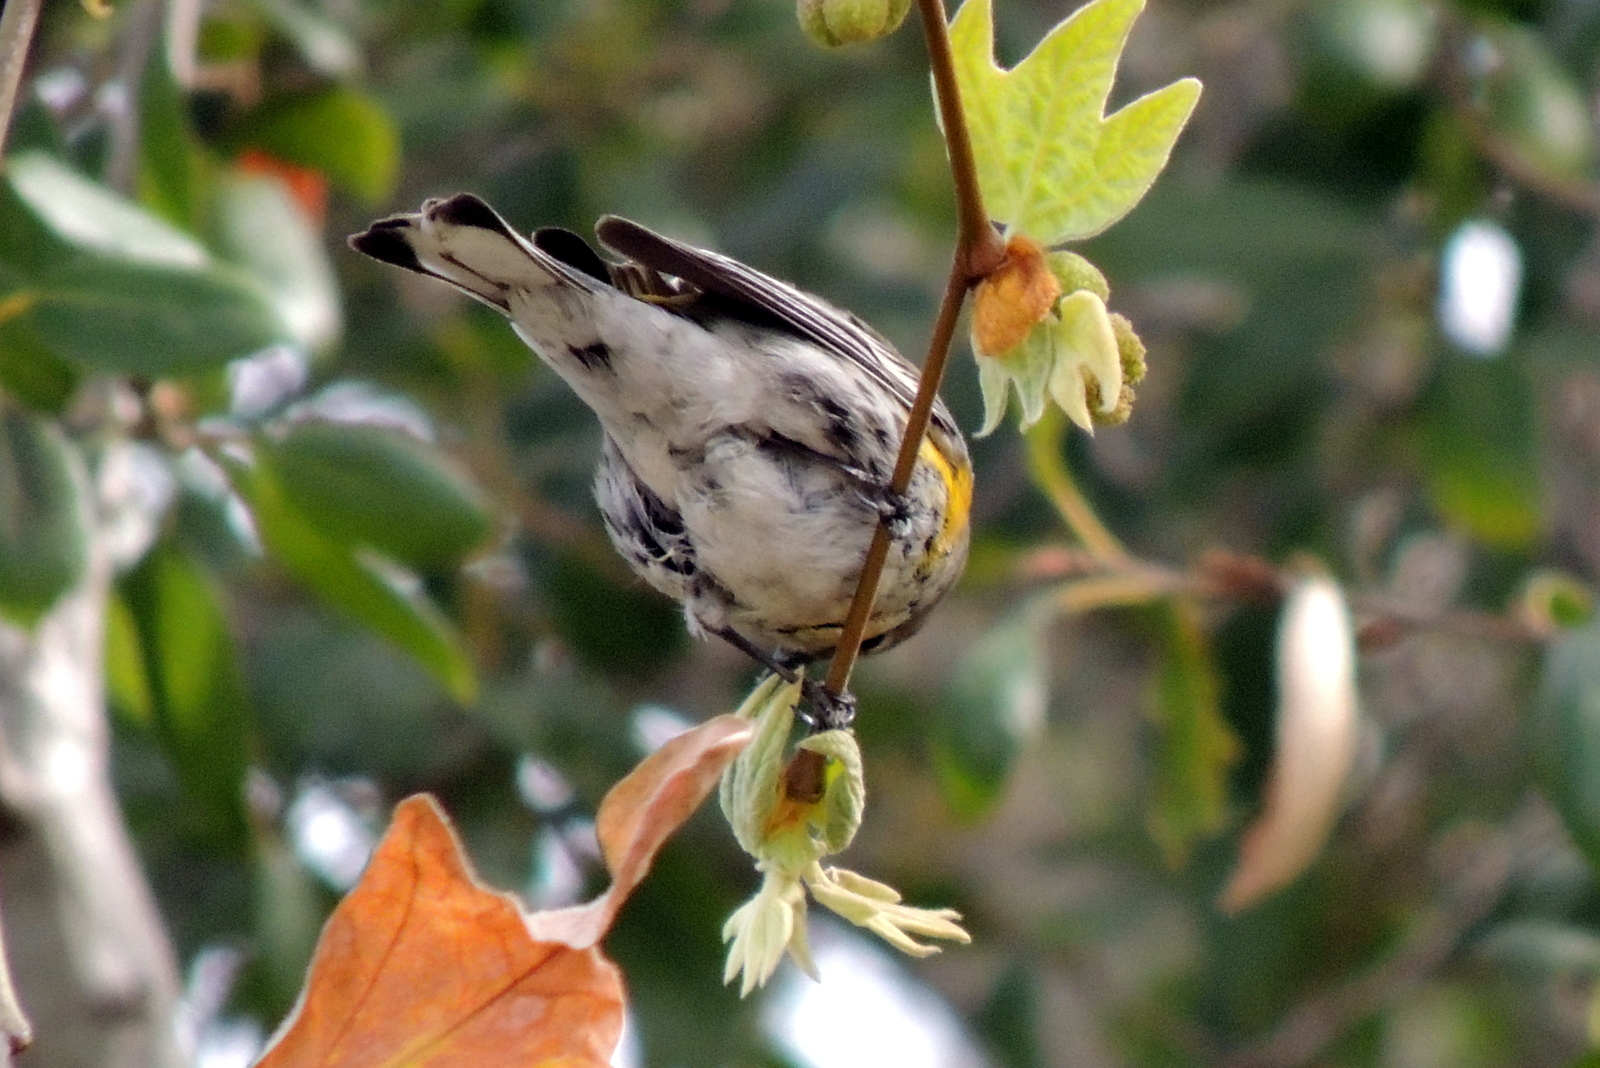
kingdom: Animalia
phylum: Chordata
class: Aves
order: Passeriformes
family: Parulidae
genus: Setophaga
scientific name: Setophaga coronata
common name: Myrtle warbler
